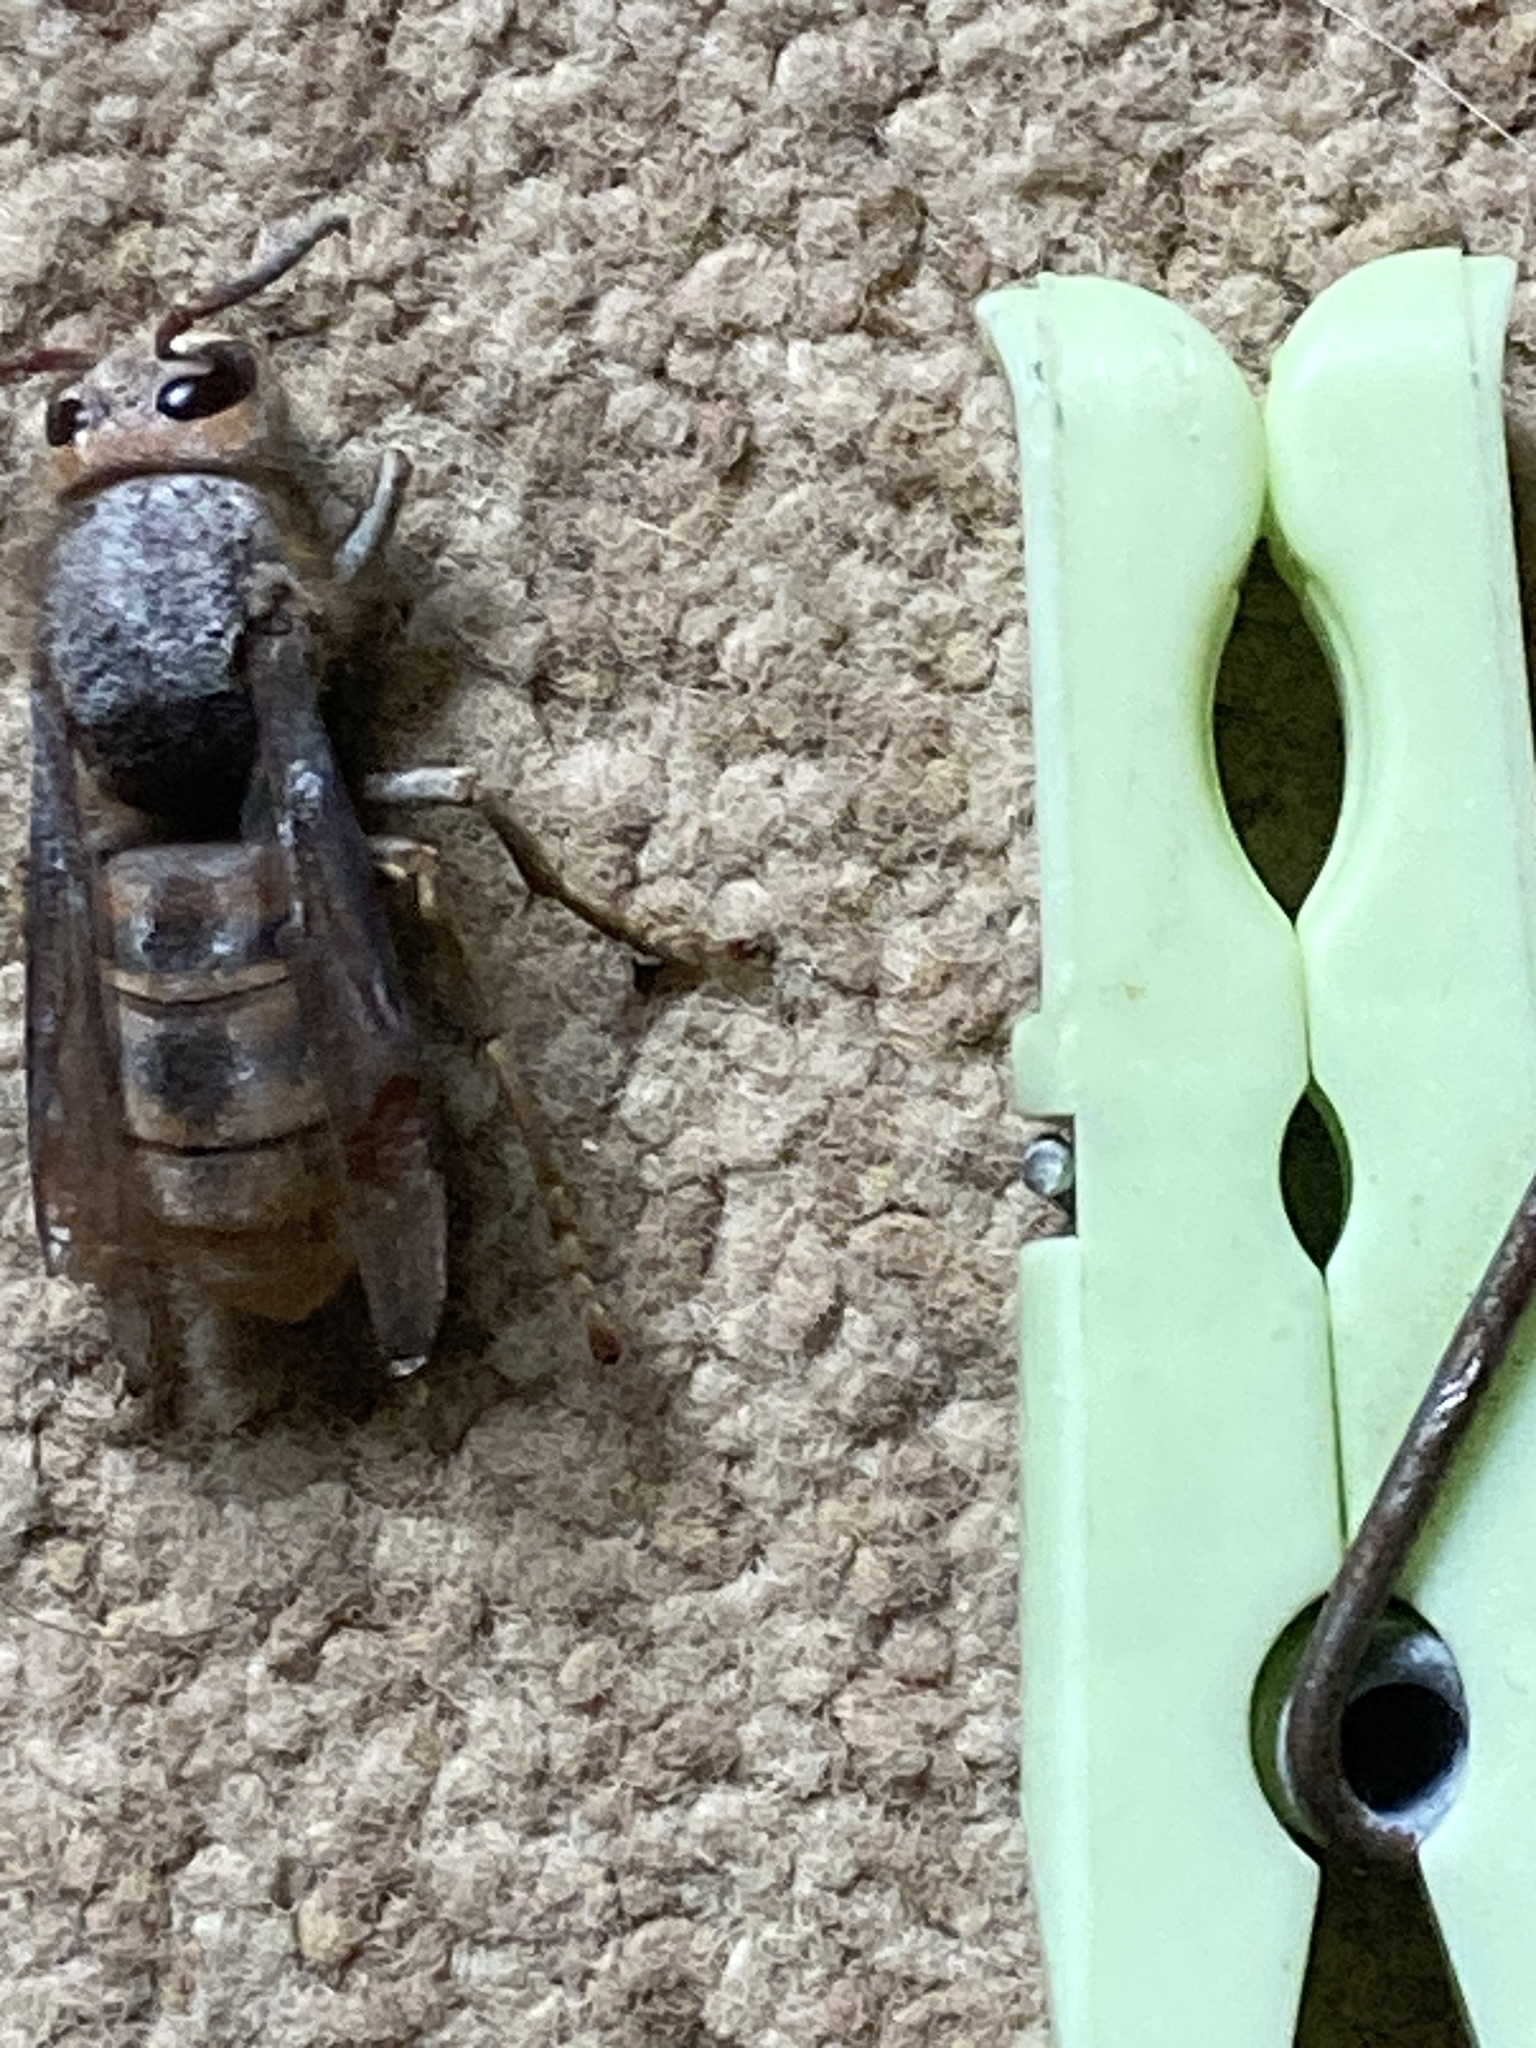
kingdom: Animalia
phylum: Arthropoda
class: Insecta
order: Hymenoptera
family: Vespidae
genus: Vespa
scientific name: Vespa crabro
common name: Hornet
